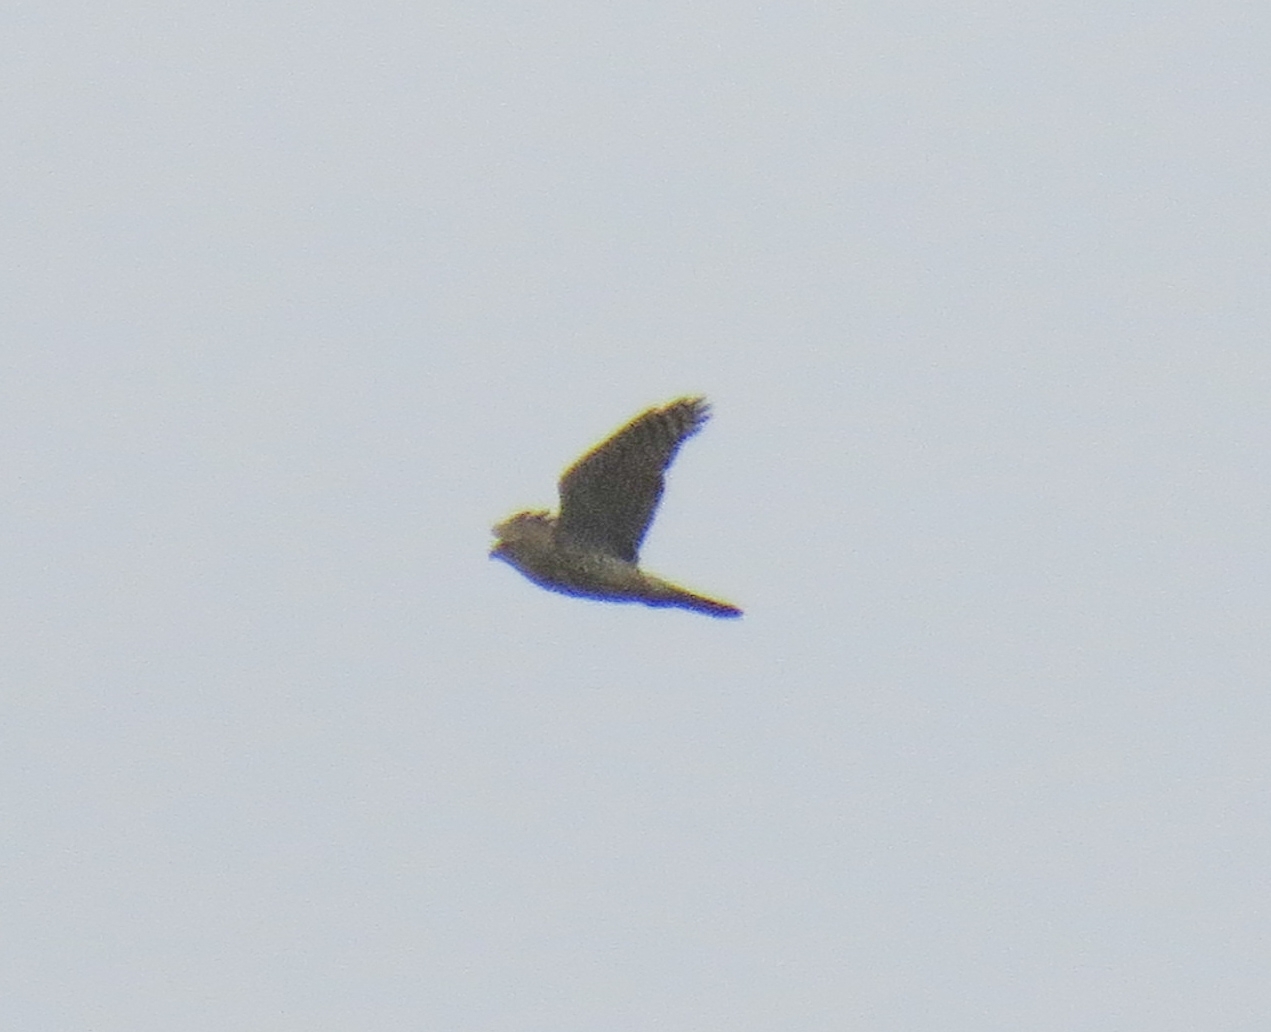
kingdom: Animalia
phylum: Chordata
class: Aves
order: Accipitriformes
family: Accipitridae
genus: Accipiter
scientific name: Accipiter gentilis
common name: Northern goshawk
